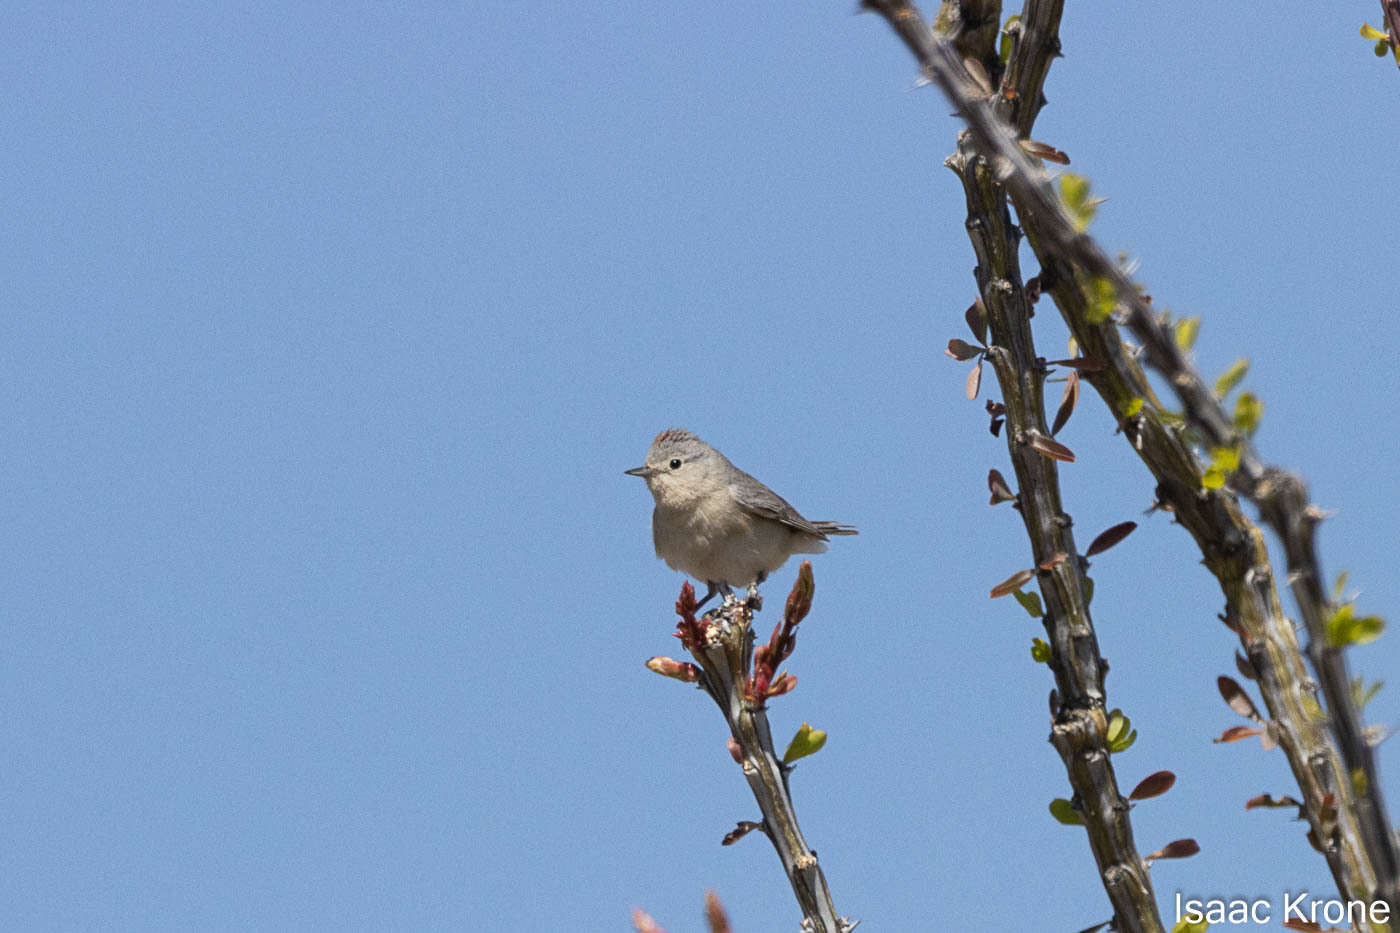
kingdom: Animalia
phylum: Chordata
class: Aves
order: Passeriformes
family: Parulidae
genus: Leiothlypis
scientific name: Leiothlypis luciae
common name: Lucy's warbler
